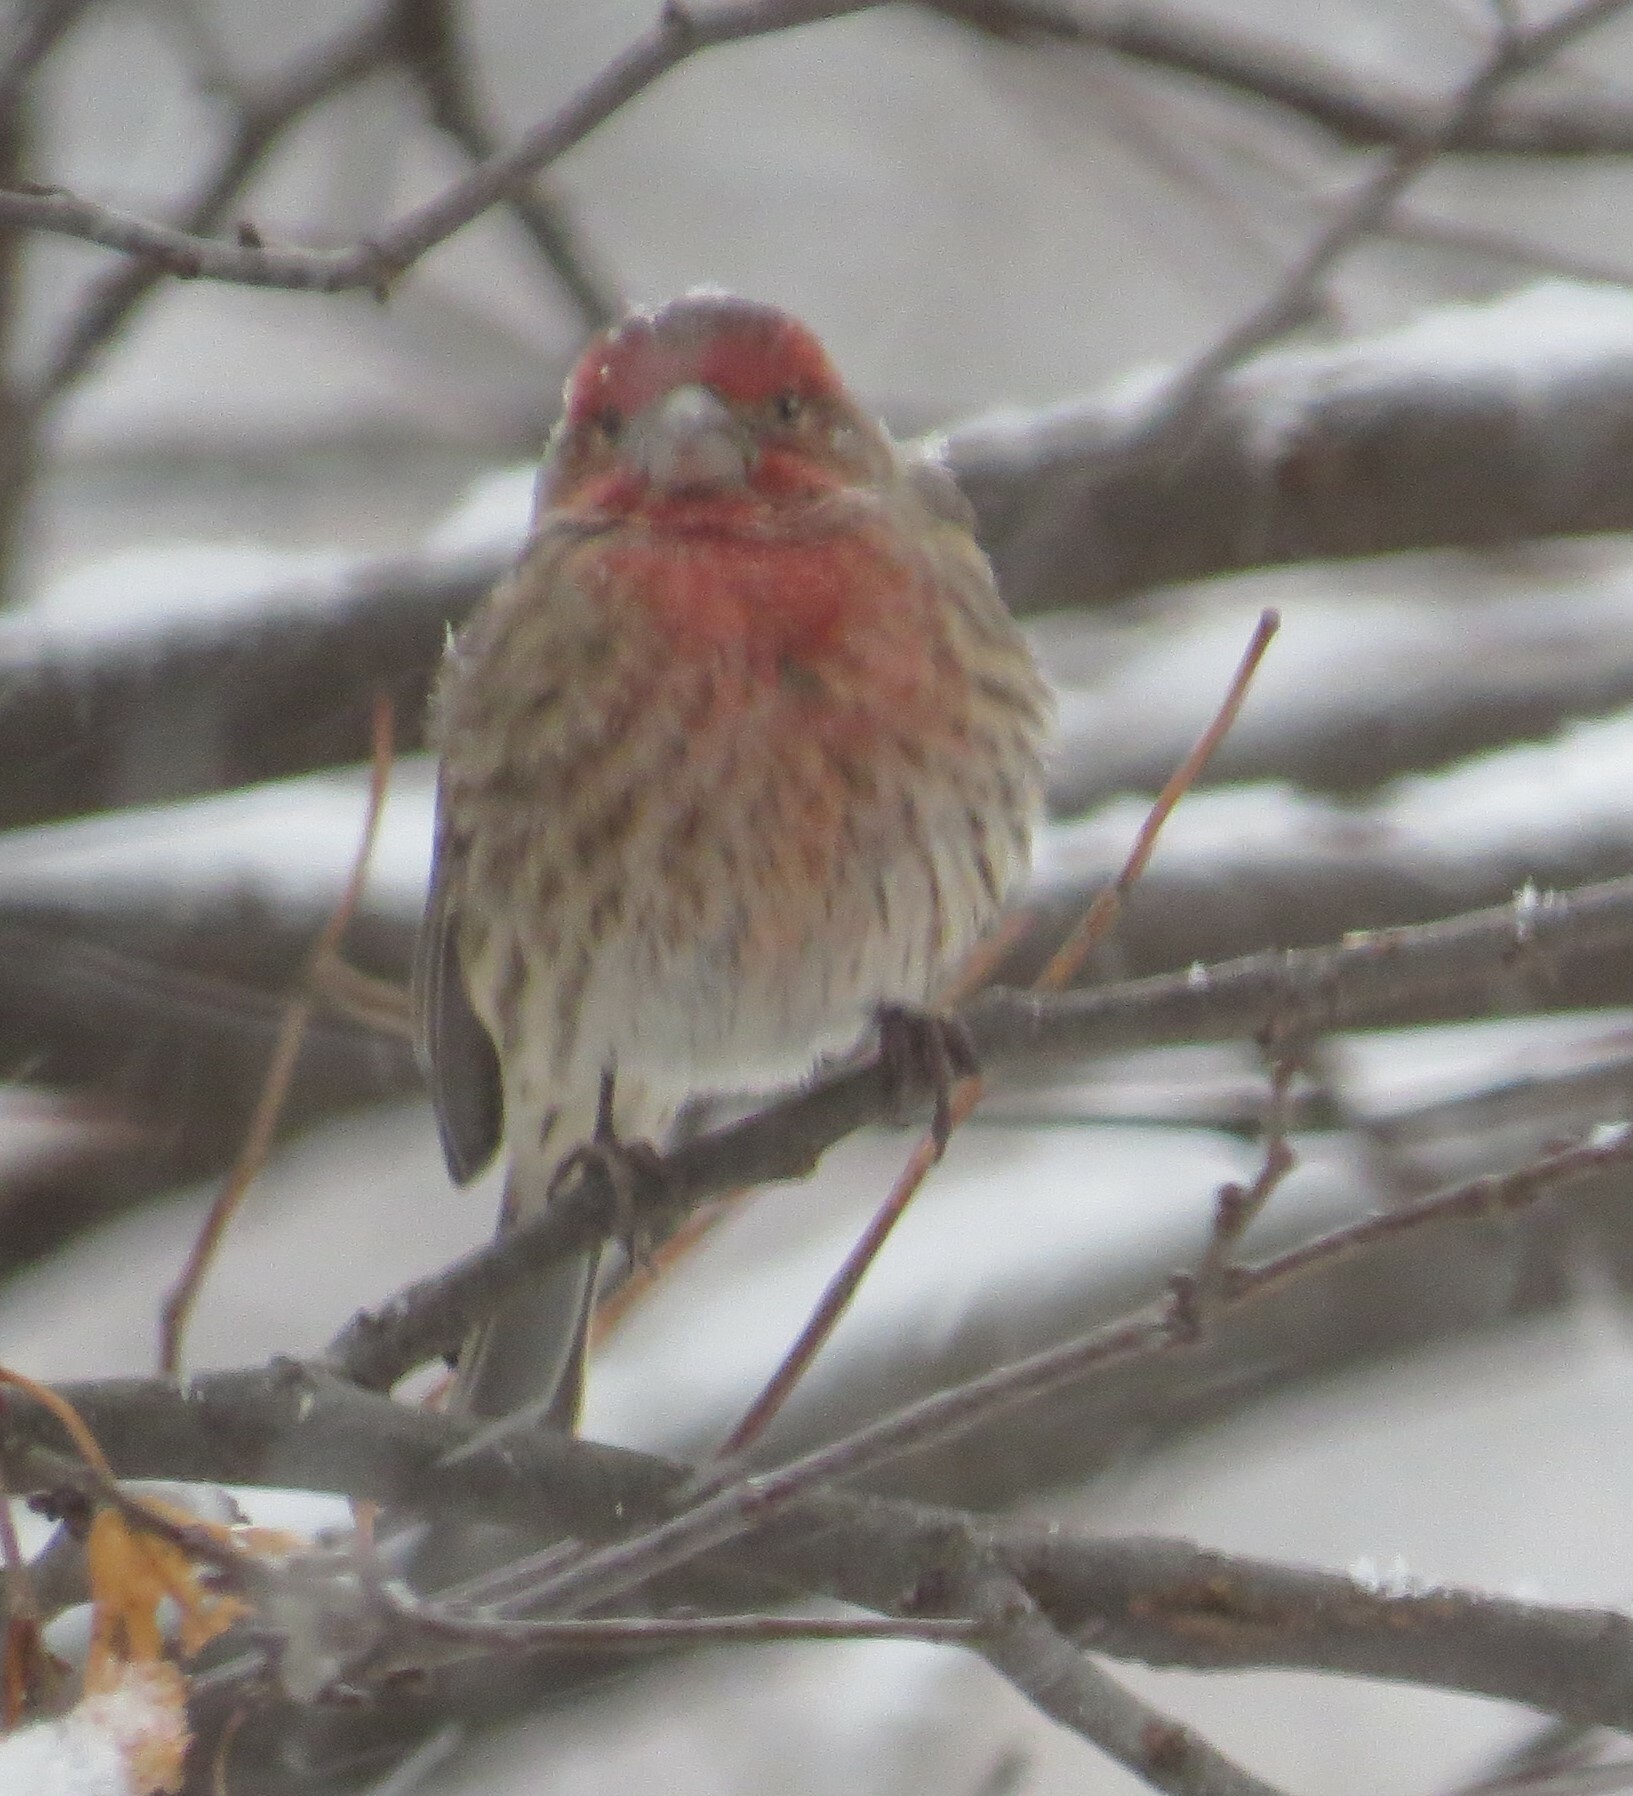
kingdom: Animalia
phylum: Chordata
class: Aves
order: Passeriformes
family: Fringillidae
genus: Haemorhous
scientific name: Haemorhous mexicanus
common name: House finch
